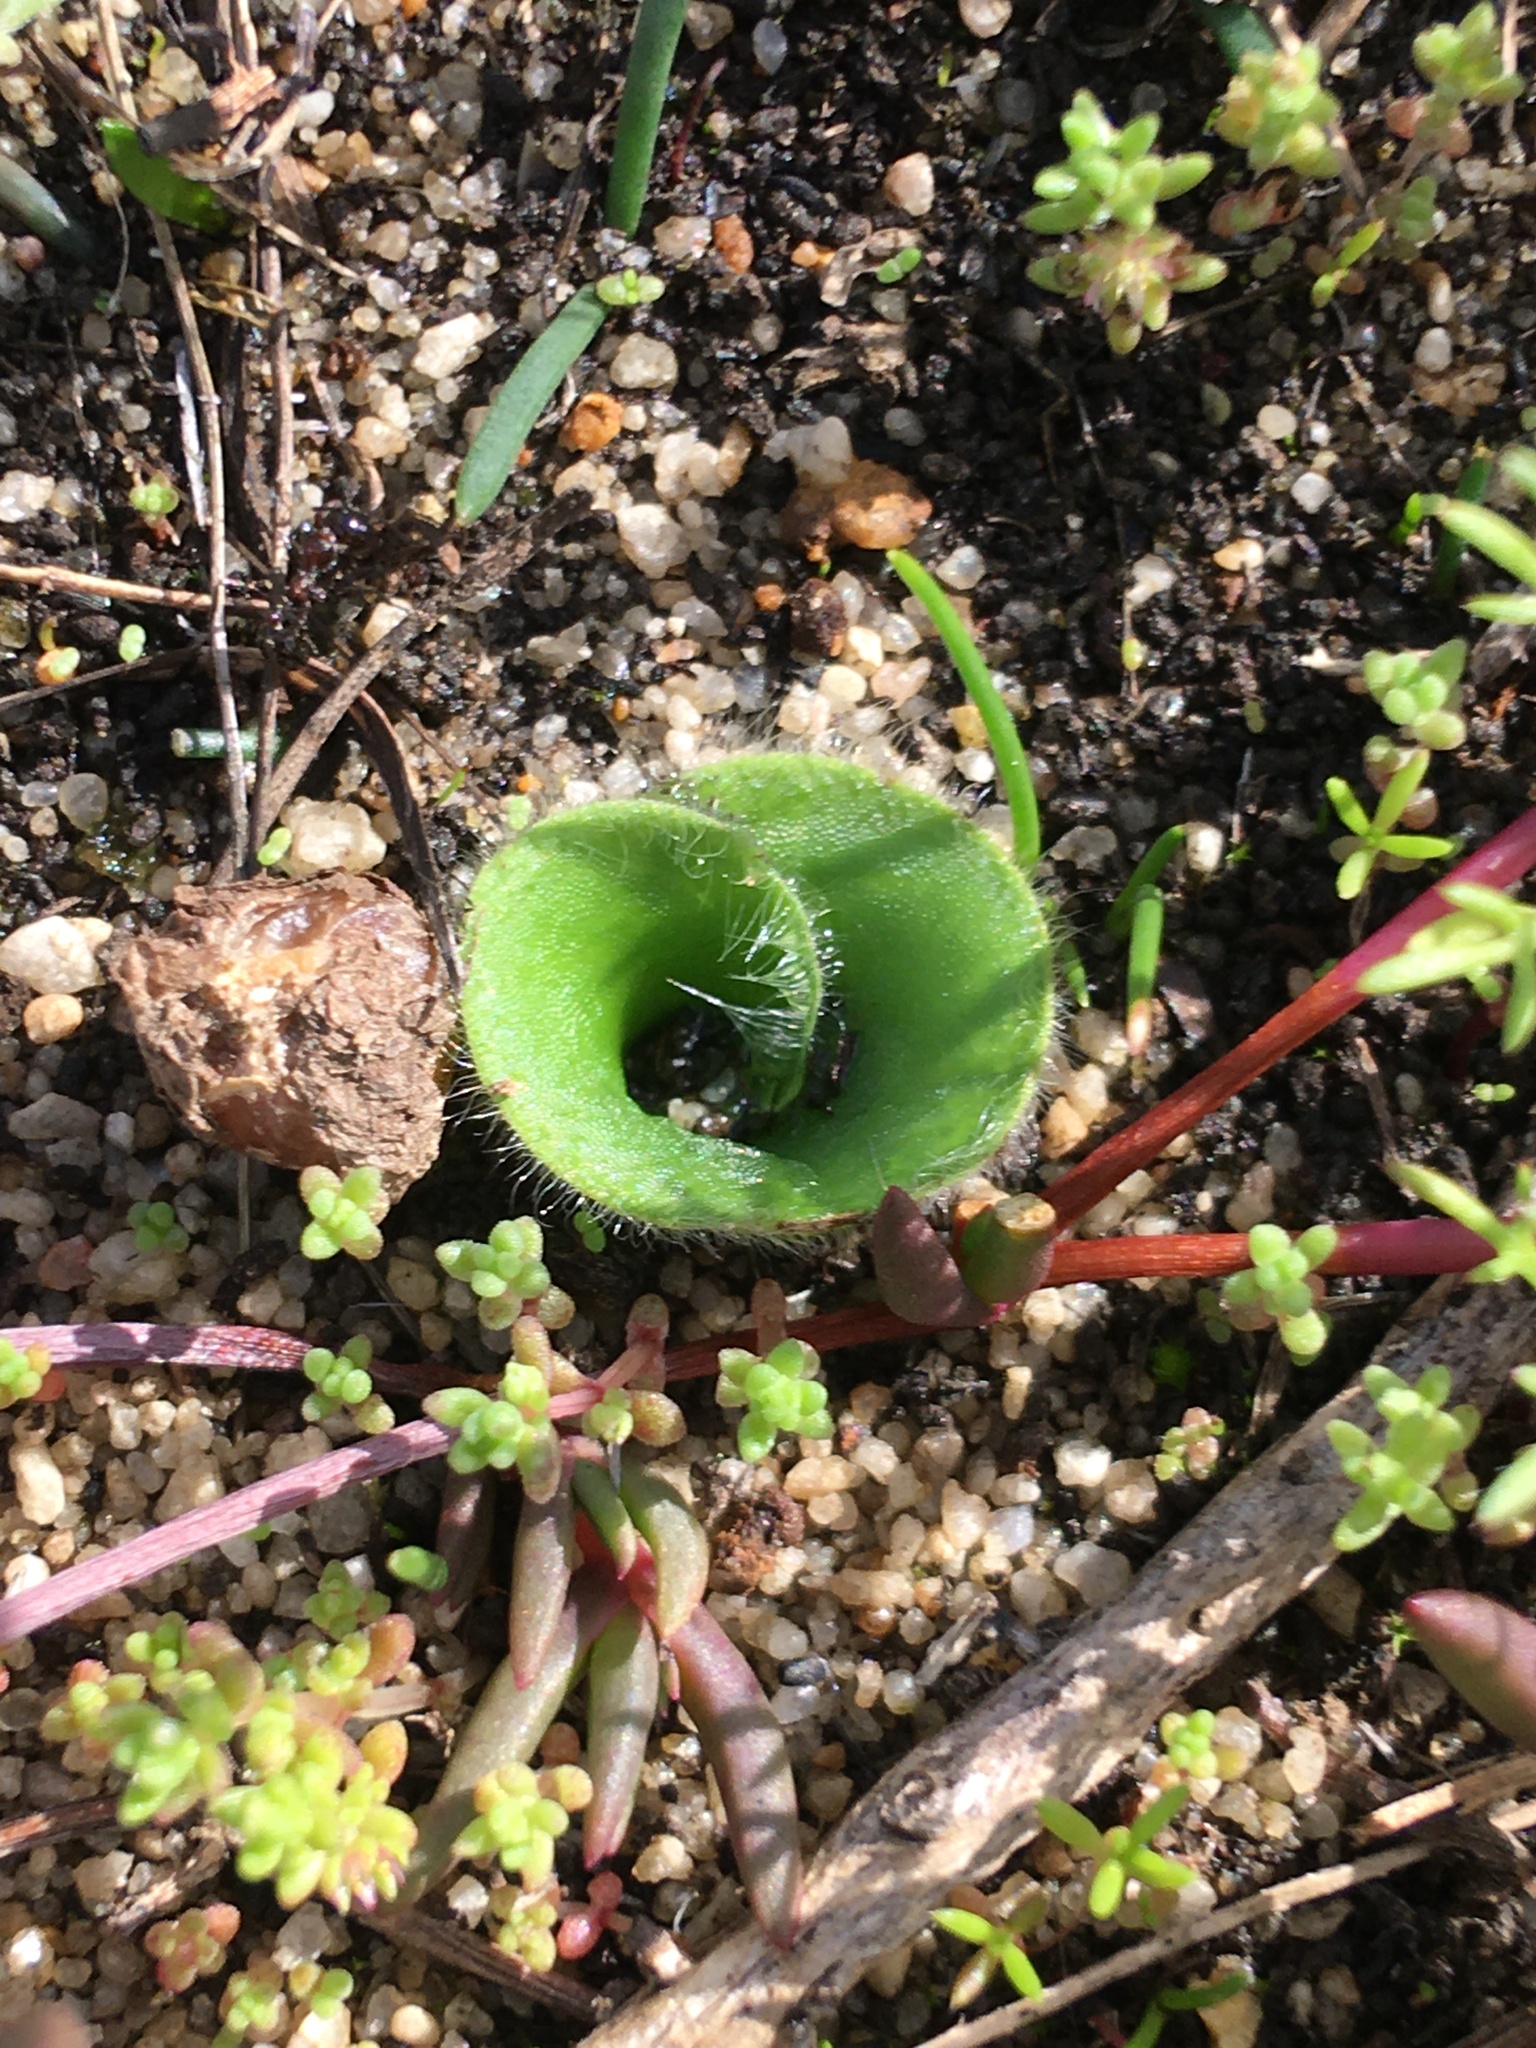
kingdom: Plantae
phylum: Tracheophyta
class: Liliopsida
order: Asparagales
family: Orchidaceae
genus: Holothrix
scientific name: Holothrix villosa
